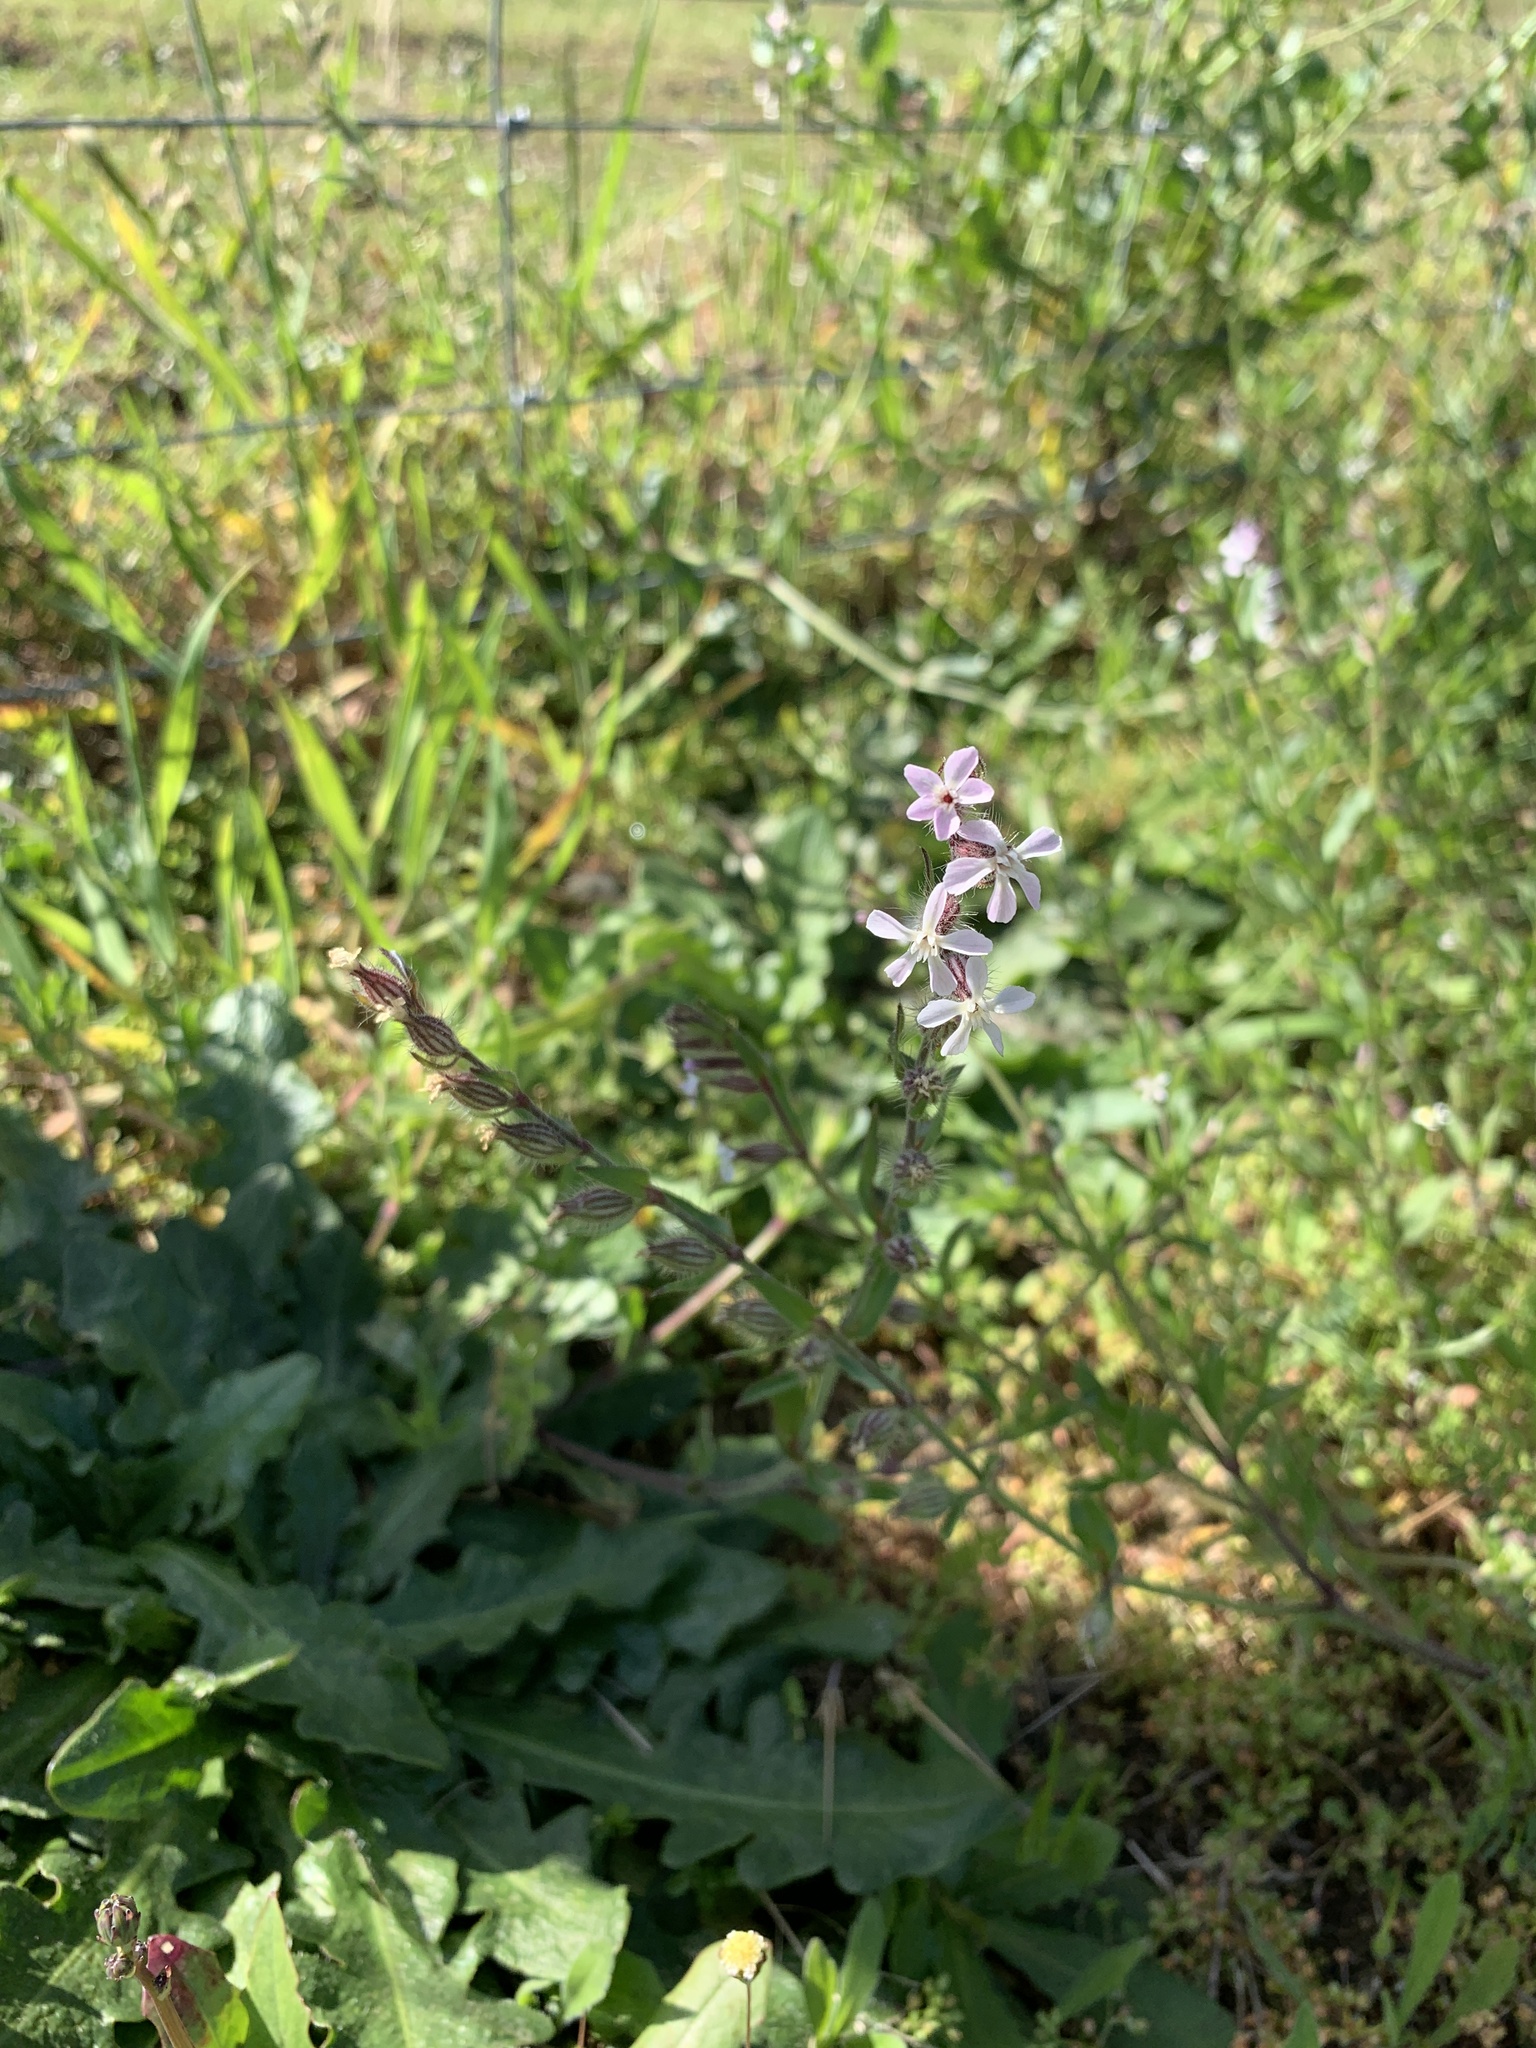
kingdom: Plantae
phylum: Tracheophyta
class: Magnoliopsida
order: Caryophyllales
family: Caryophyllaceae
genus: Silene
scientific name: Silene gallica
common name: Small-flowered catchfly
